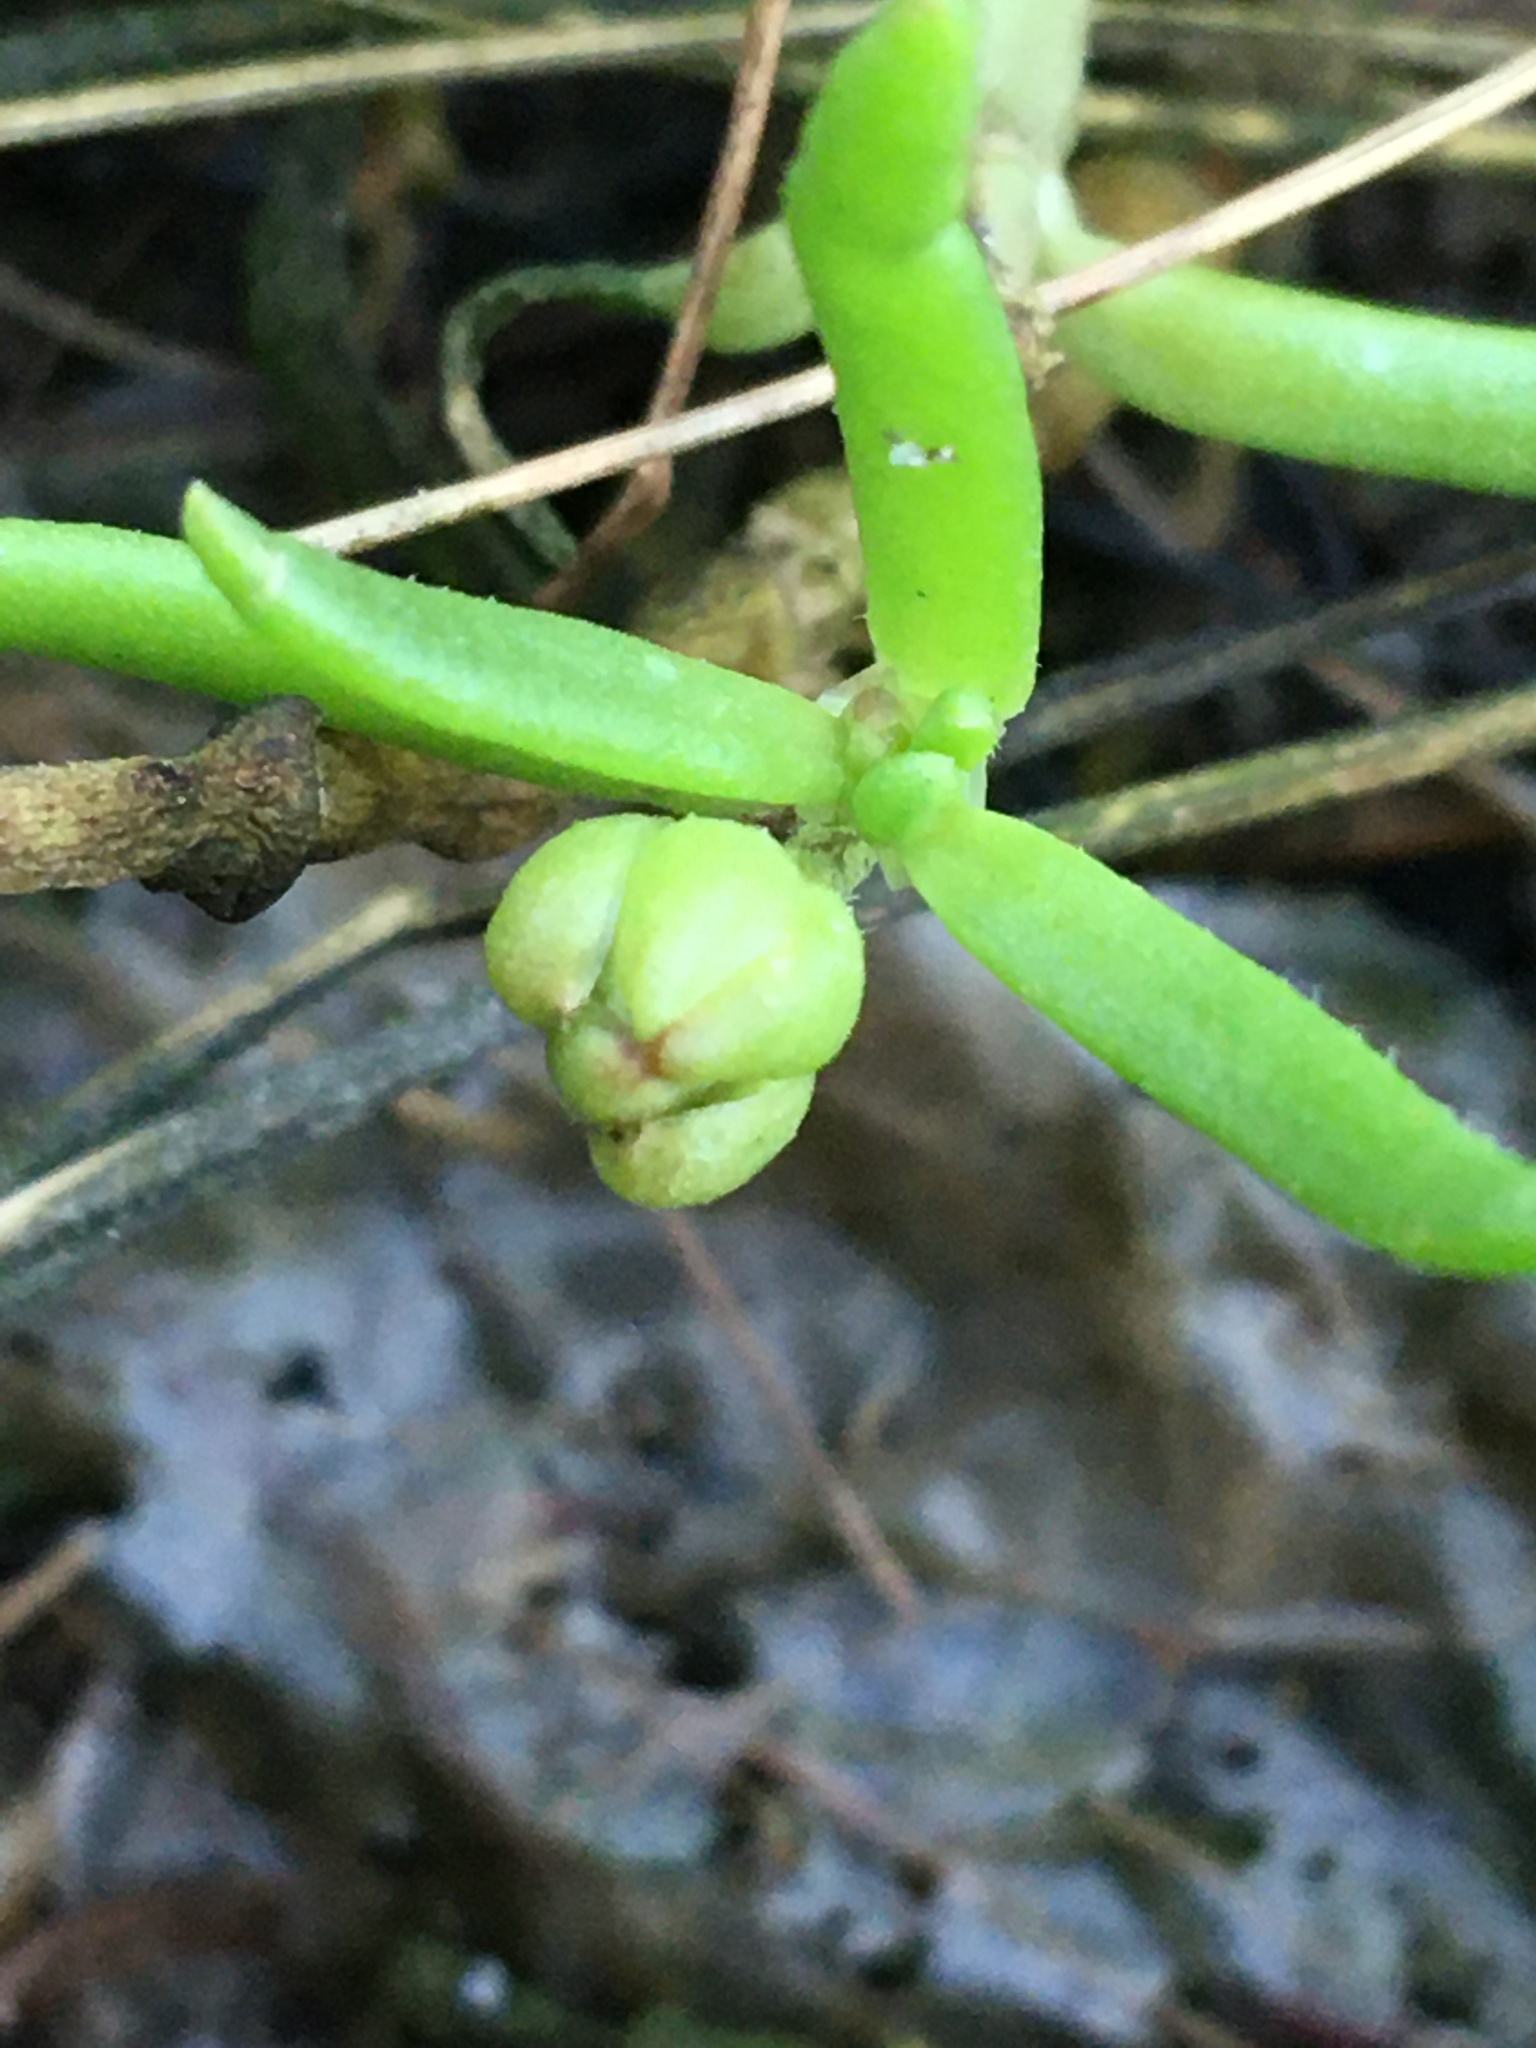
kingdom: Plantae
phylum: Tracheophyta
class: Magnoliopsida
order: Caryophyllales
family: Caryophyllaceae
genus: Spergularia
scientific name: Spergularia marina
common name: Lesser sea-spurrey
